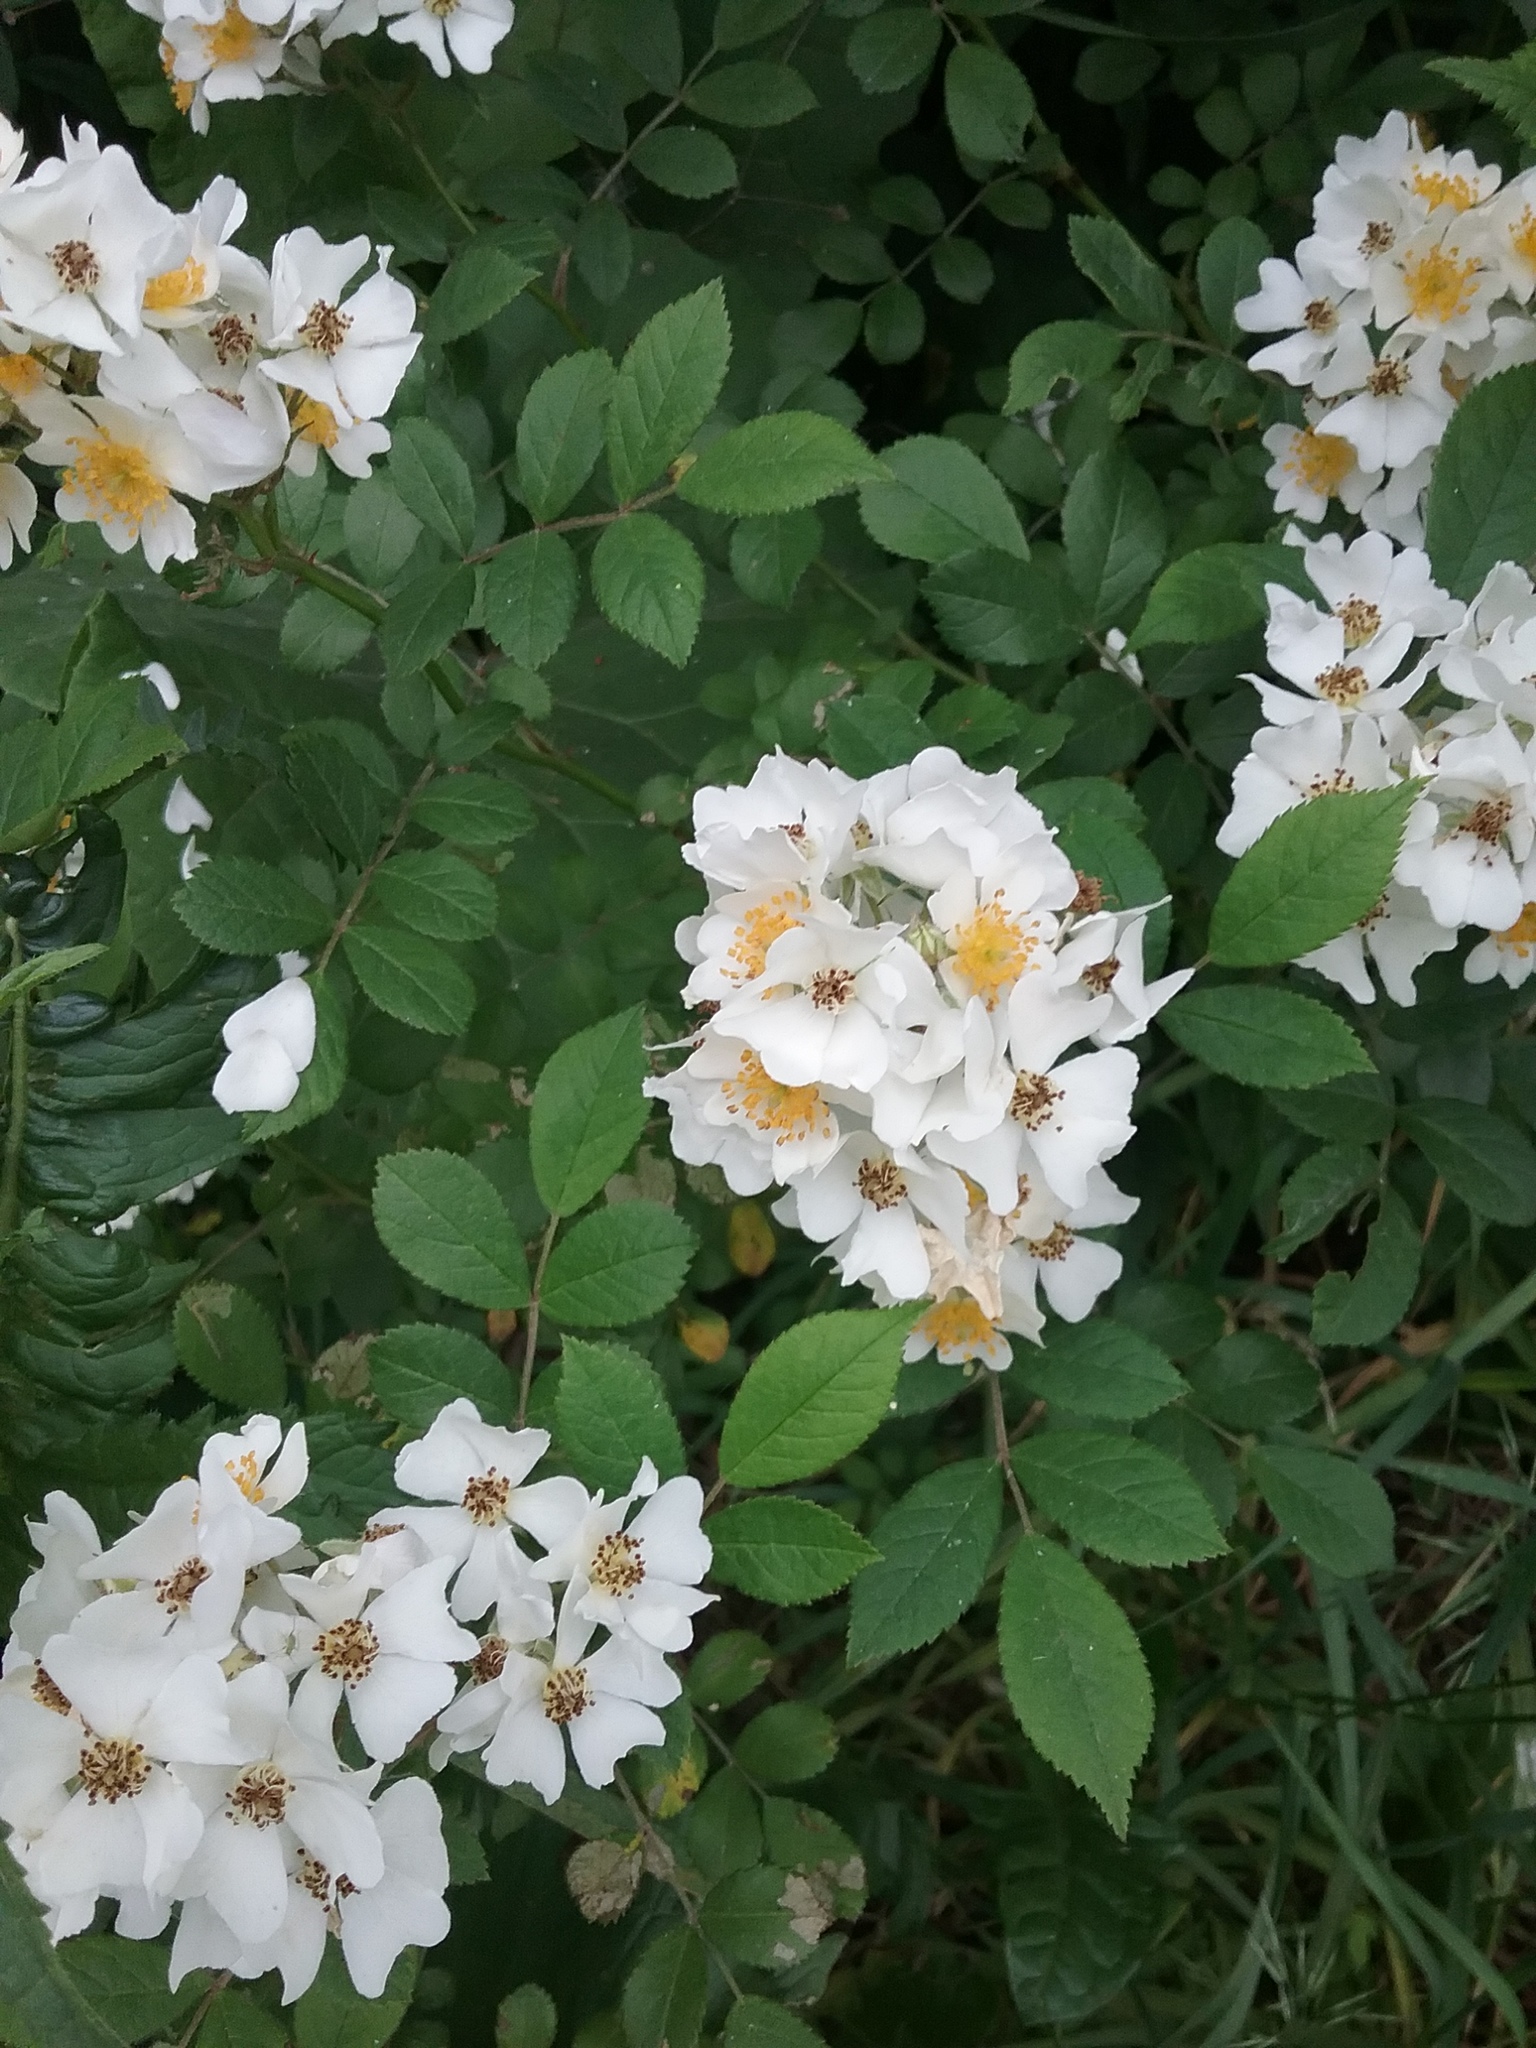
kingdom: Plantae
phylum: Tracheophyta
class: Magnoliopsida
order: Rosales
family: Rosaceae
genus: Rosa
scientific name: Rosa multiflora
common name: Multiflora rose
